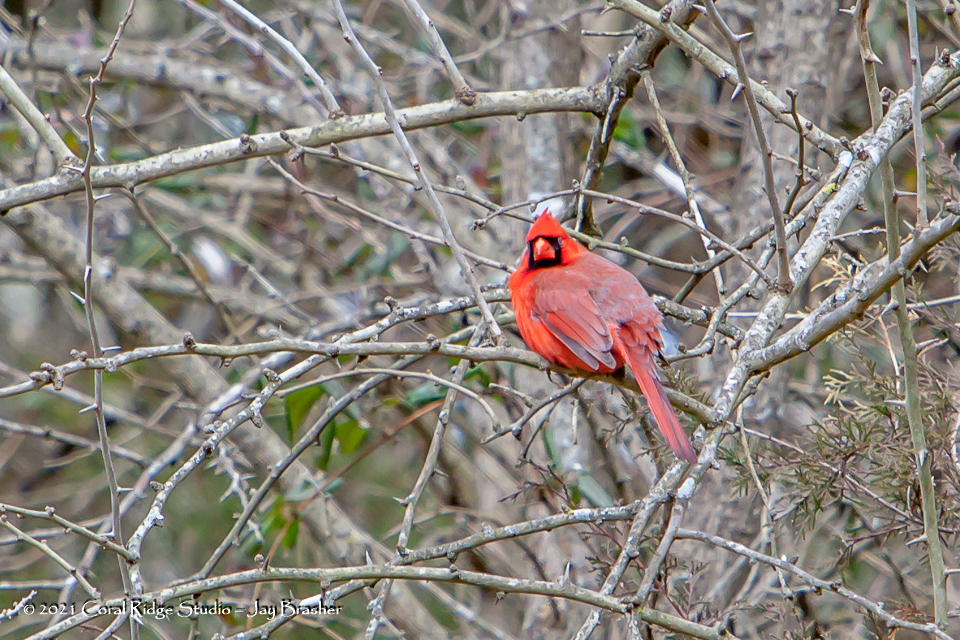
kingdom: Animalia
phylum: Chordata
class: Aves
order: Passeriformes
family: Cardinalidae
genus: Cardinalis
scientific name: Cardinalis cardinalis
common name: Northern cardinal
